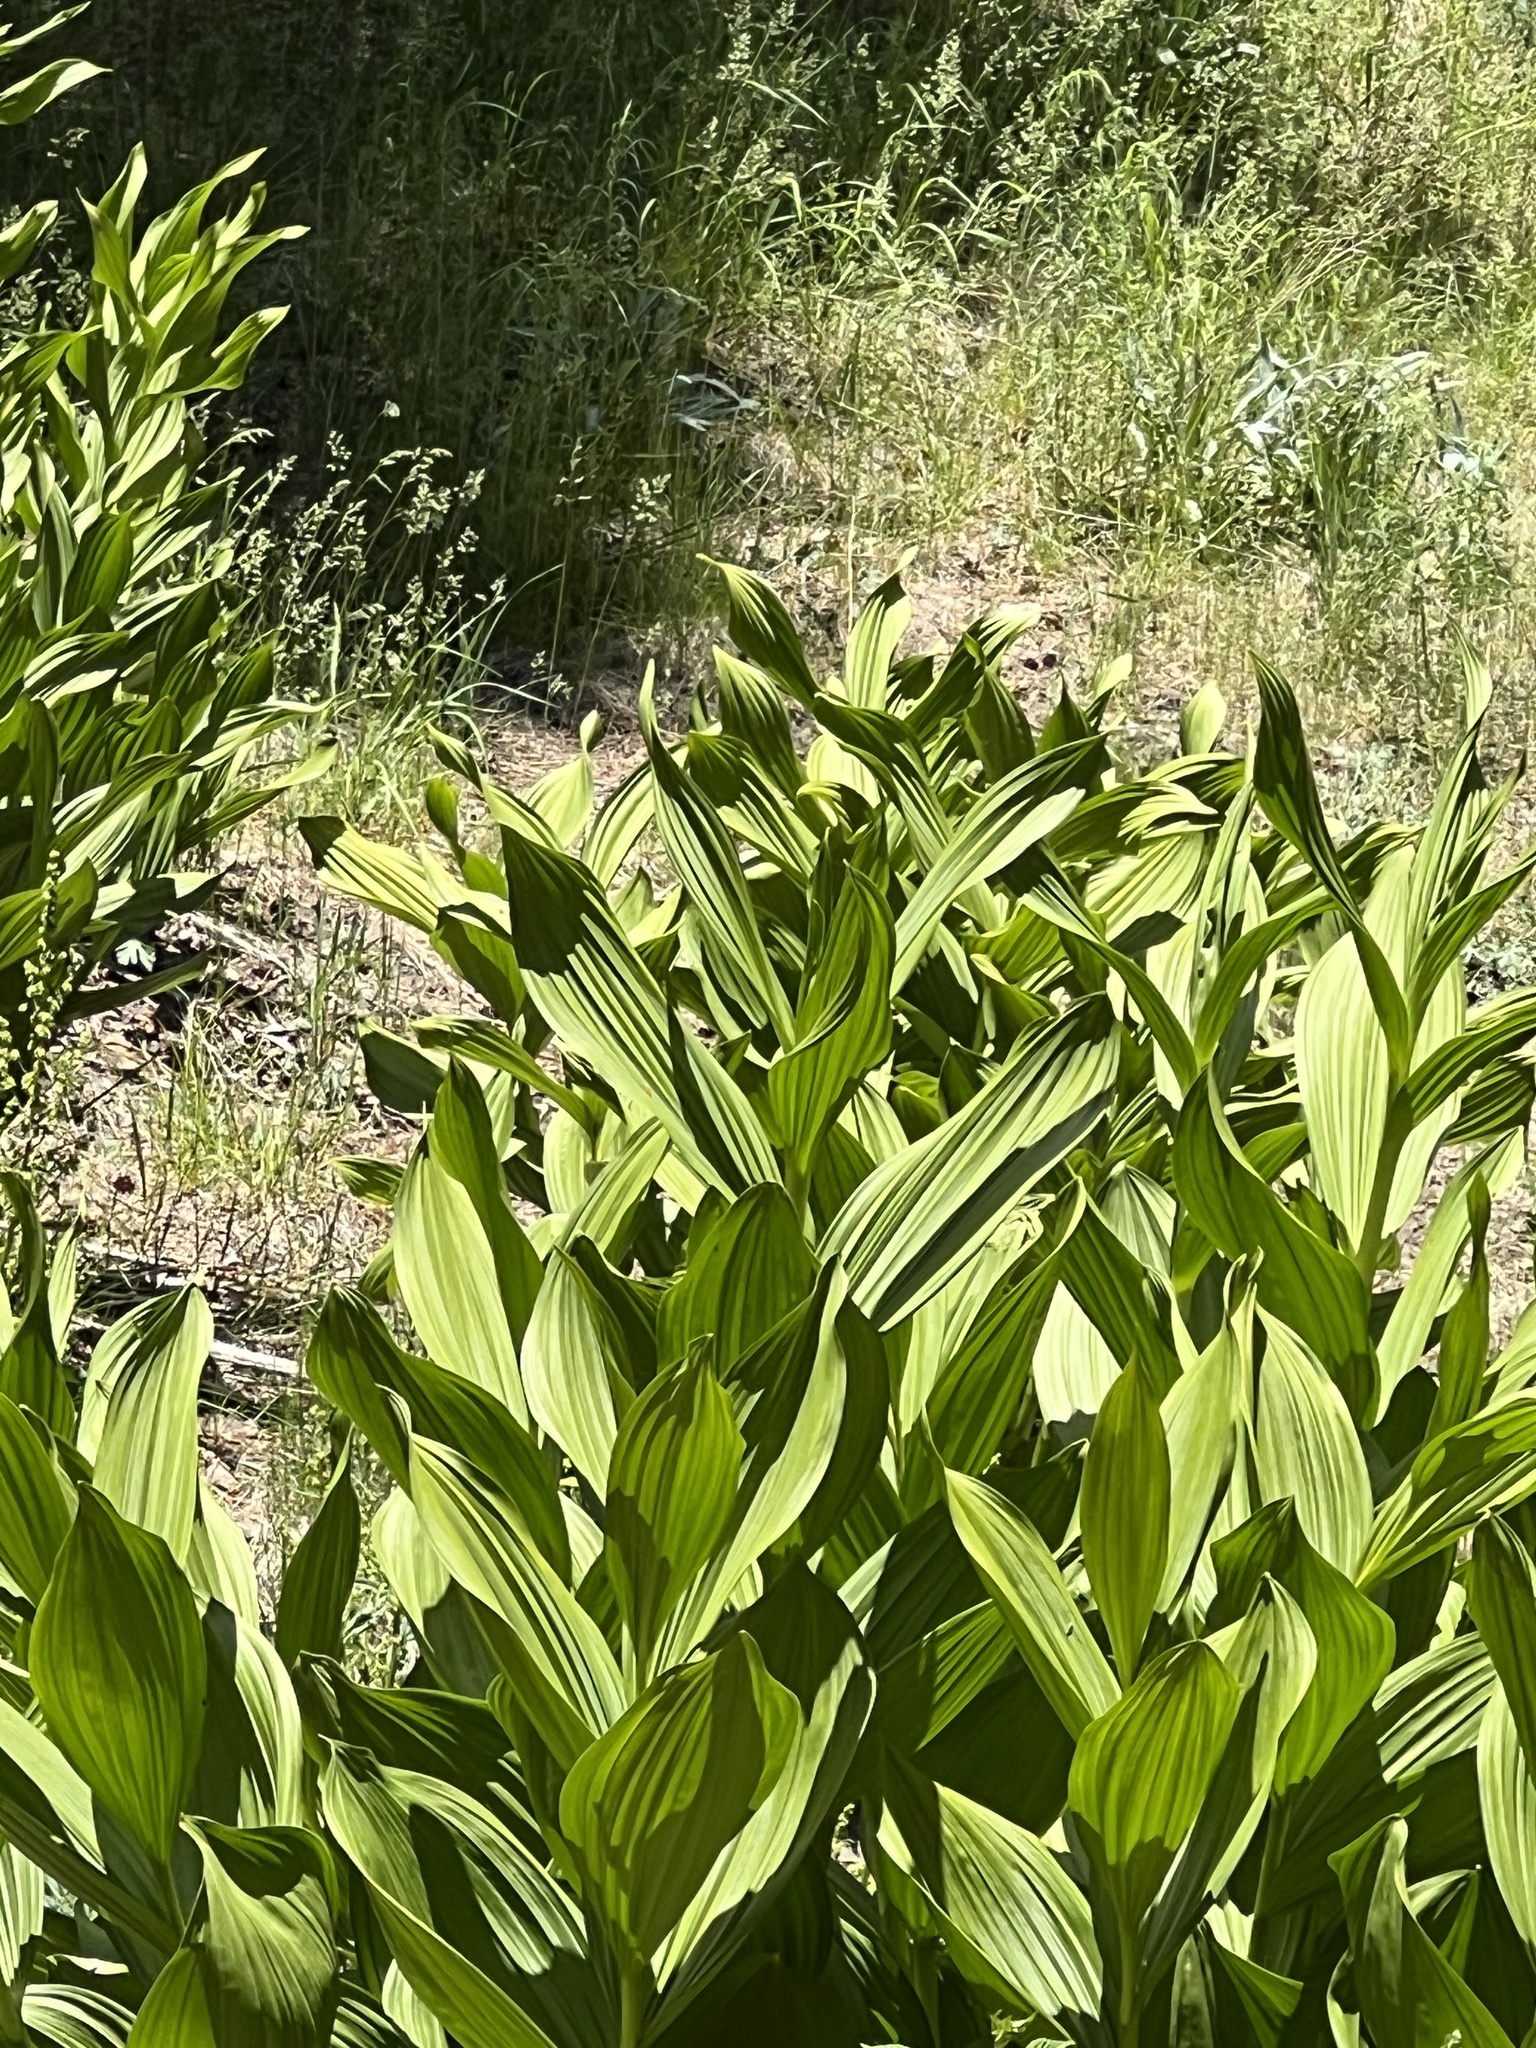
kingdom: Plantae
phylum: Tracheophyta
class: Liliopsida
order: Liliales
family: Melanthiaceae
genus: Veratrum
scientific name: Veratrum californicum
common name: California veratrum
